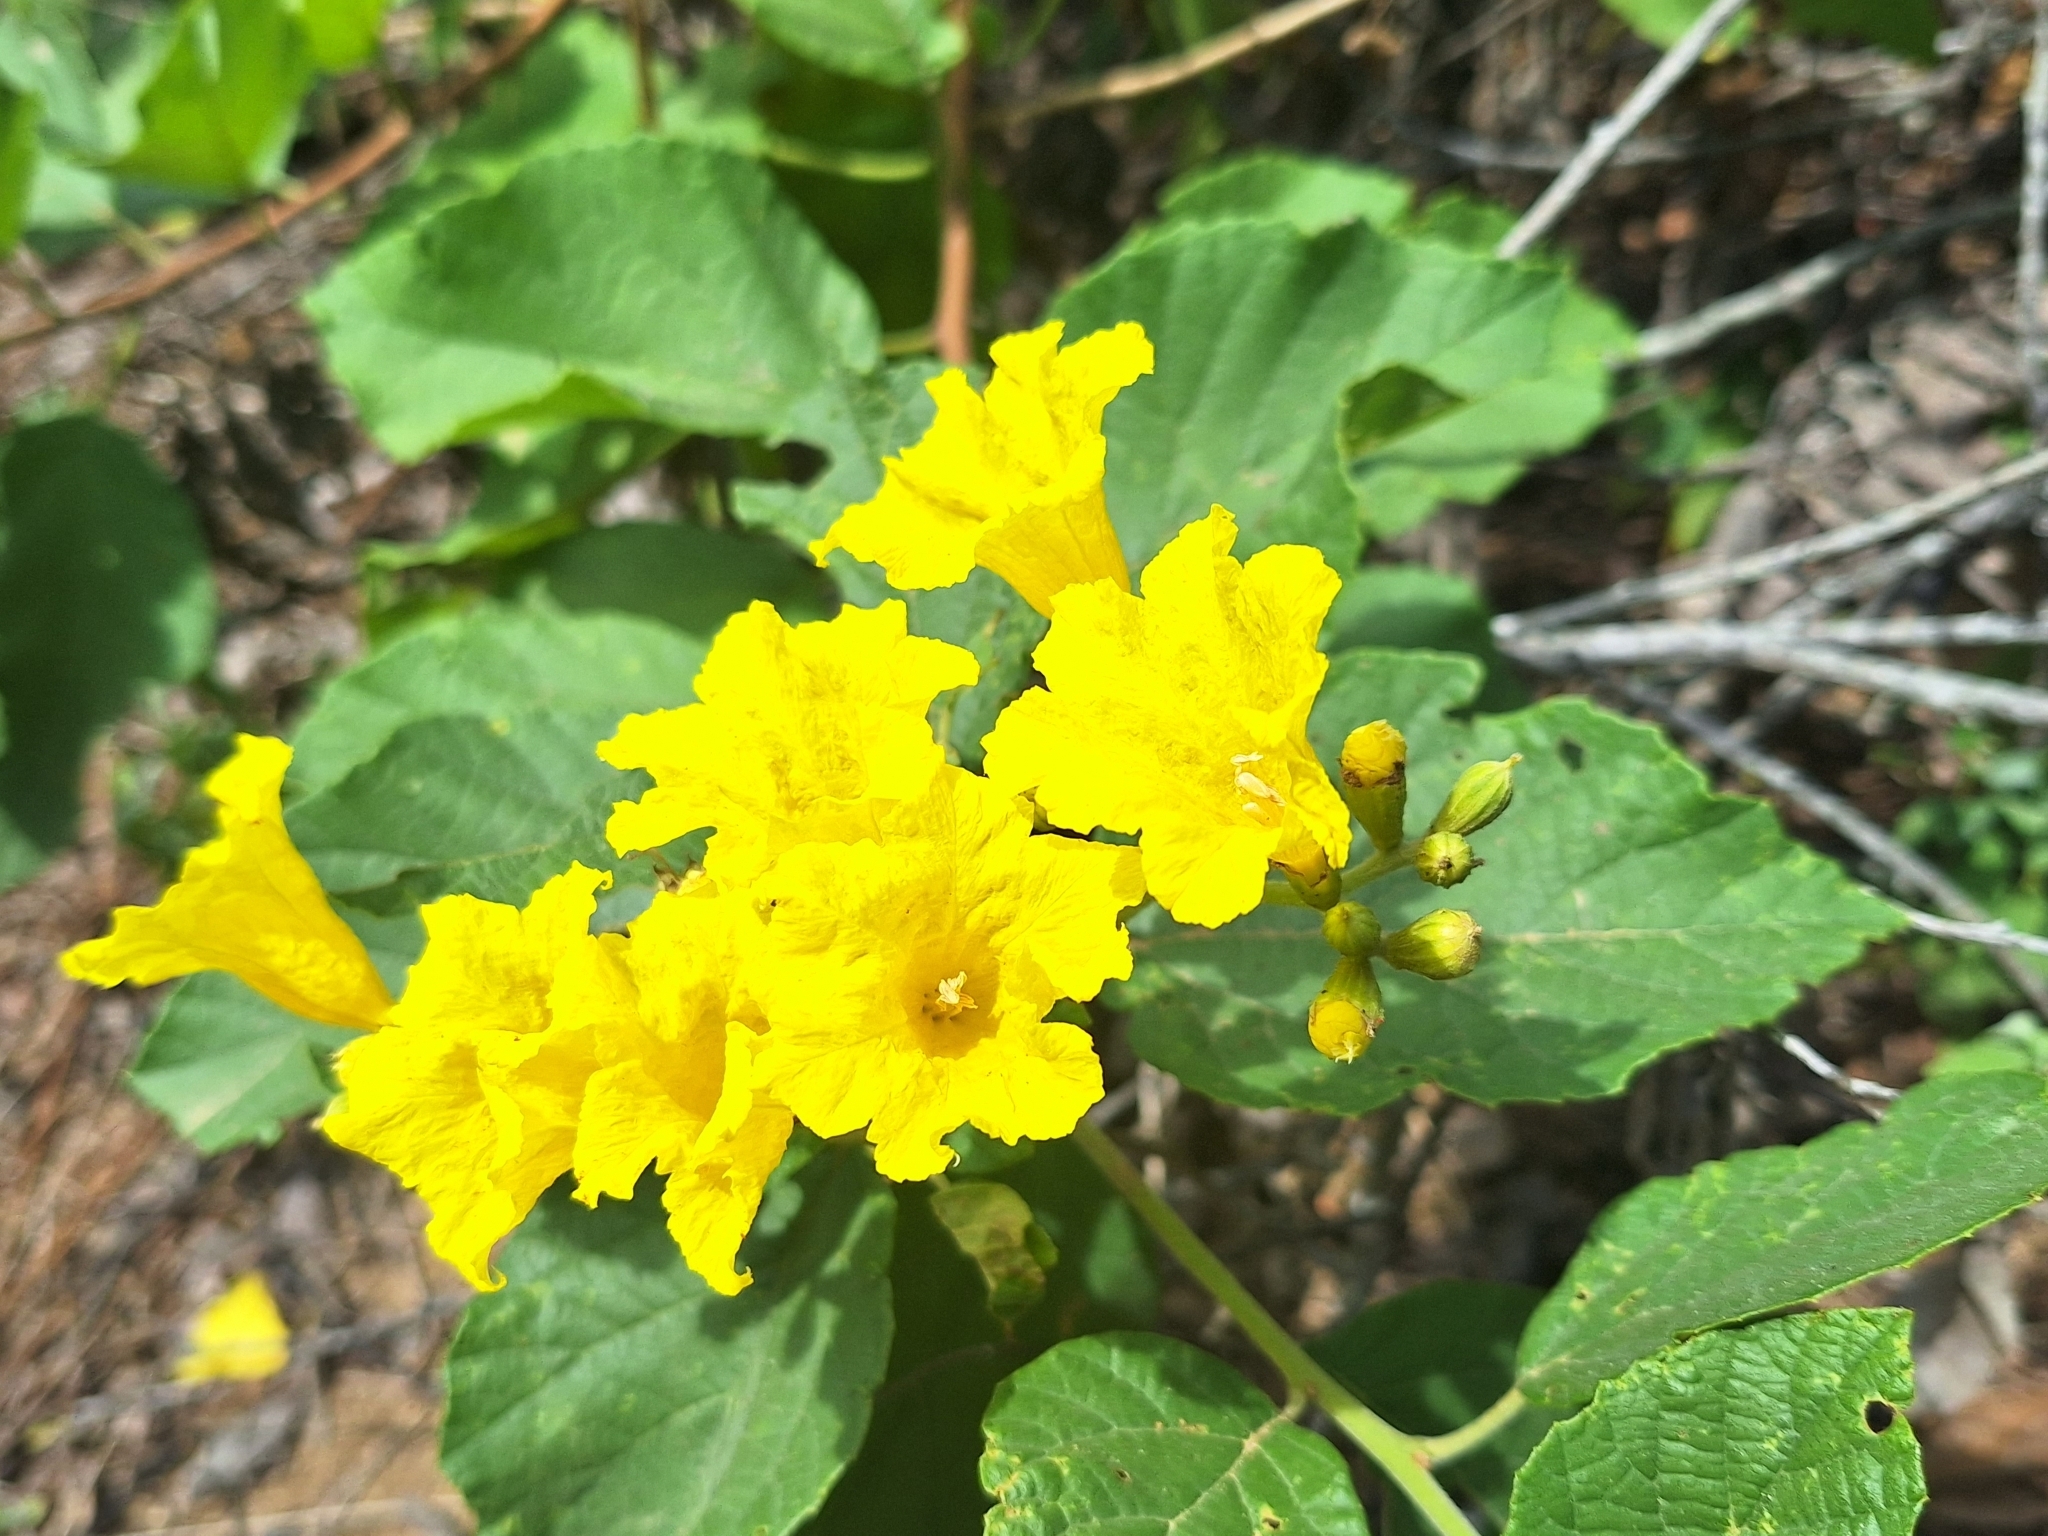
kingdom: Plantae
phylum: Tracheophyta
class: Magnoliopsida
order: Boraginales
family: Cordiaceae
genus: Cordia
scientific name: Cordia lutea
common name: Yellow geiger
